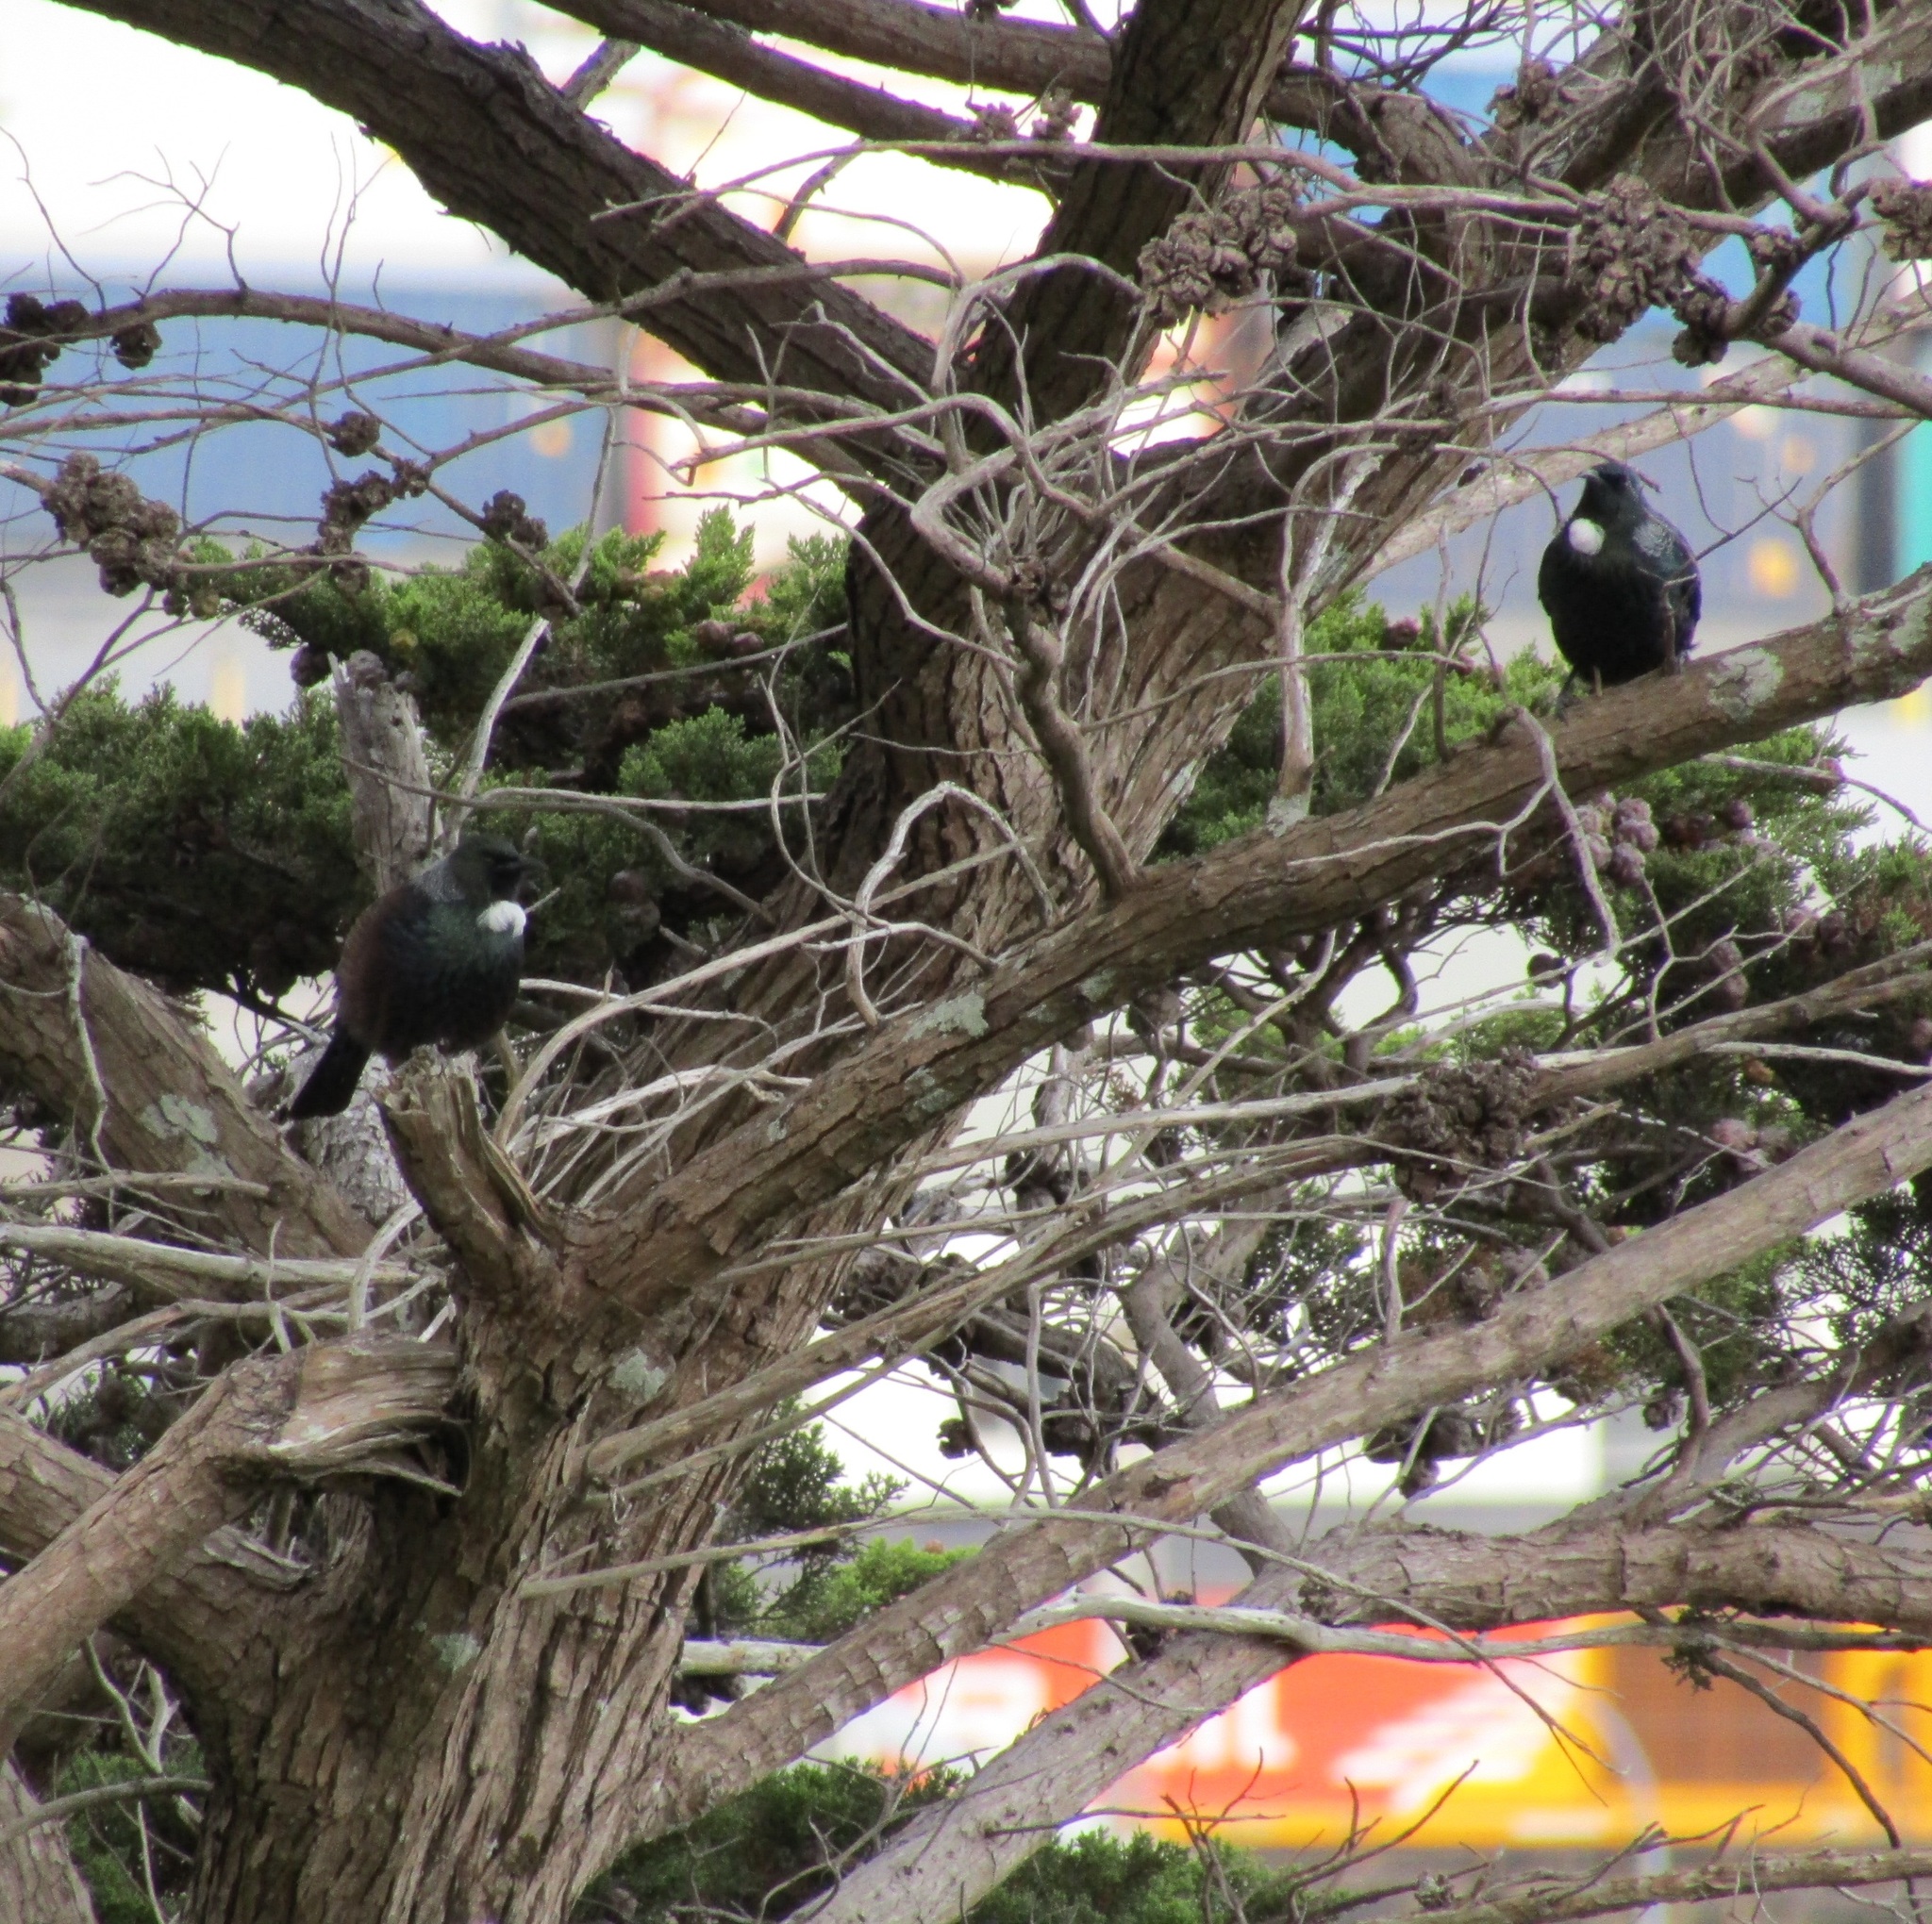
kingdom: Animalia
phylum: Chordata
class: Aves
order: Passeriformes
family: Meliphagidae
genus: Prosthemadera
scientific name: Prosthemadera novaeseelandiae
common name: Tui
